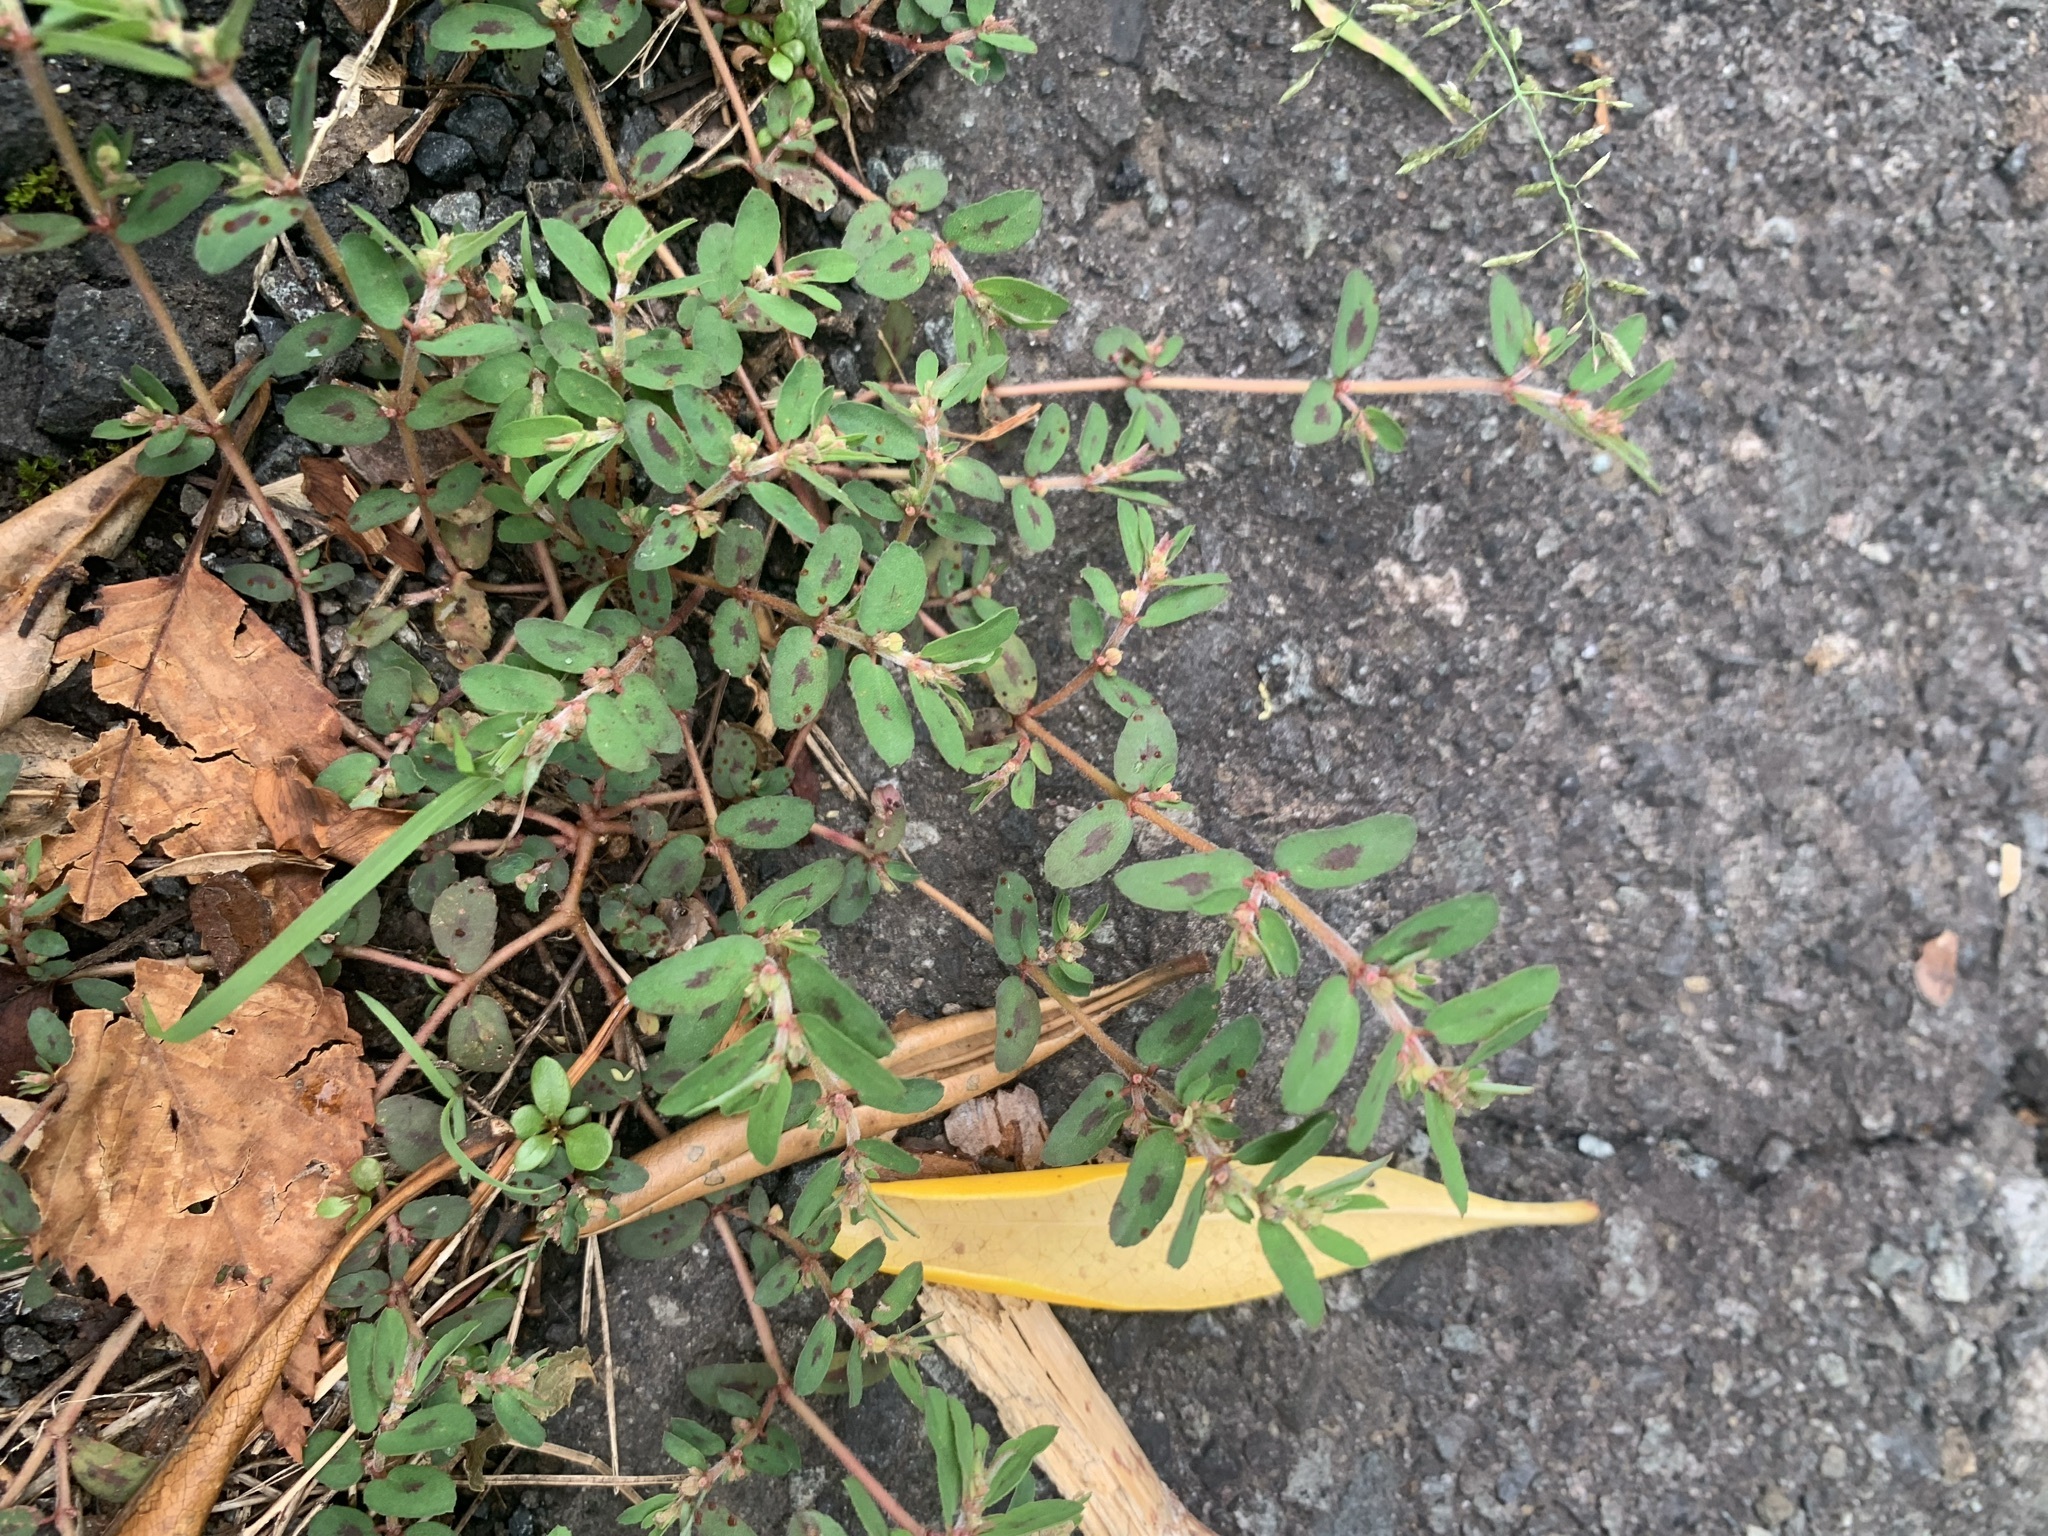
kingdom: Plantae
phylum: Tracheophyta
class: Magnoliopsida
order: Malpighiales
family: Euphorbiaceae
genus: Euphorbia
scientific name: Euphorbia maculata
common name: Spotted spurge
